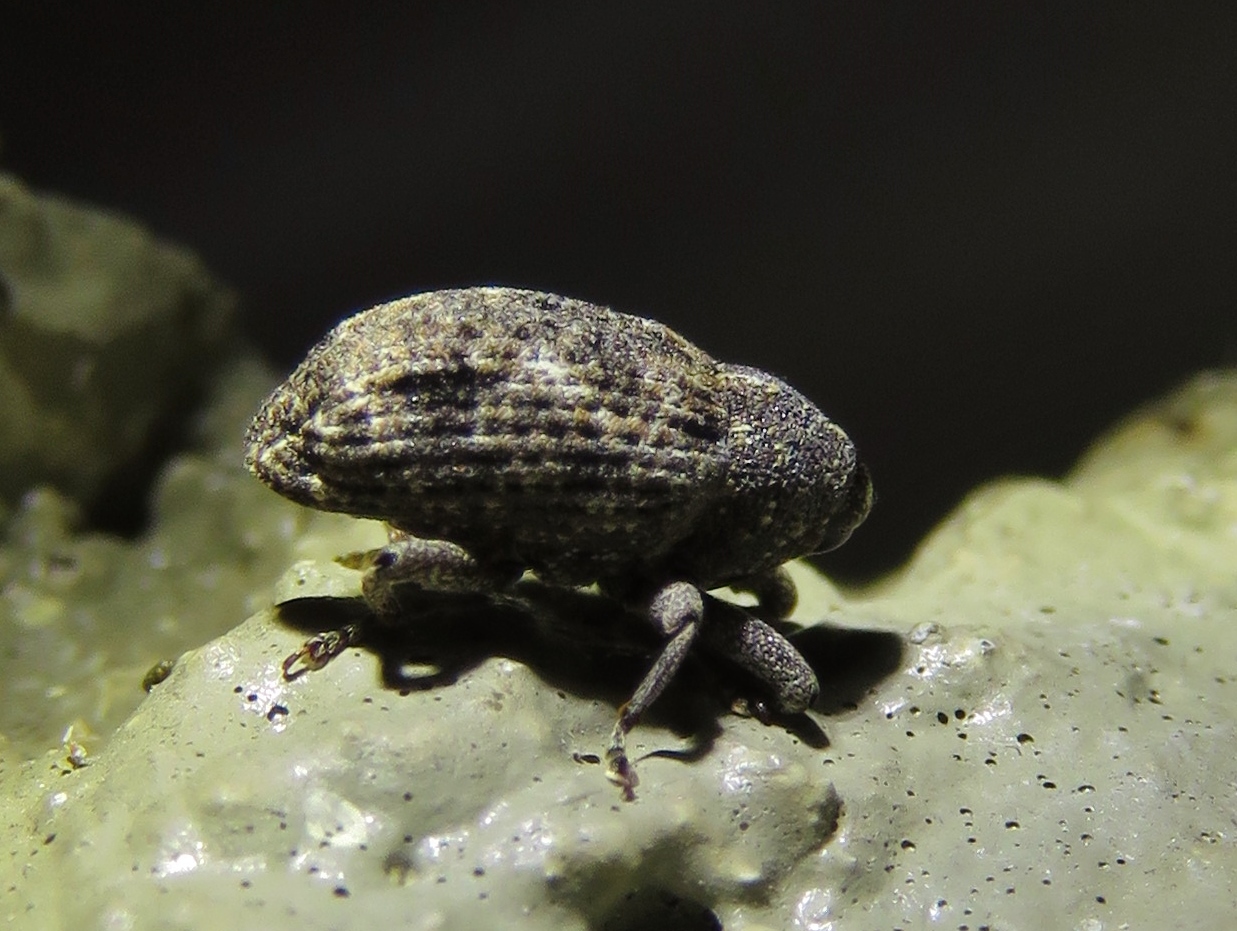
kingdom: Animalia
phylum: Arthropoda
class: Insecta
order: Coleoptera
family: Curculionidae
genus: Cophes
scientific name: Cophes oblongus
